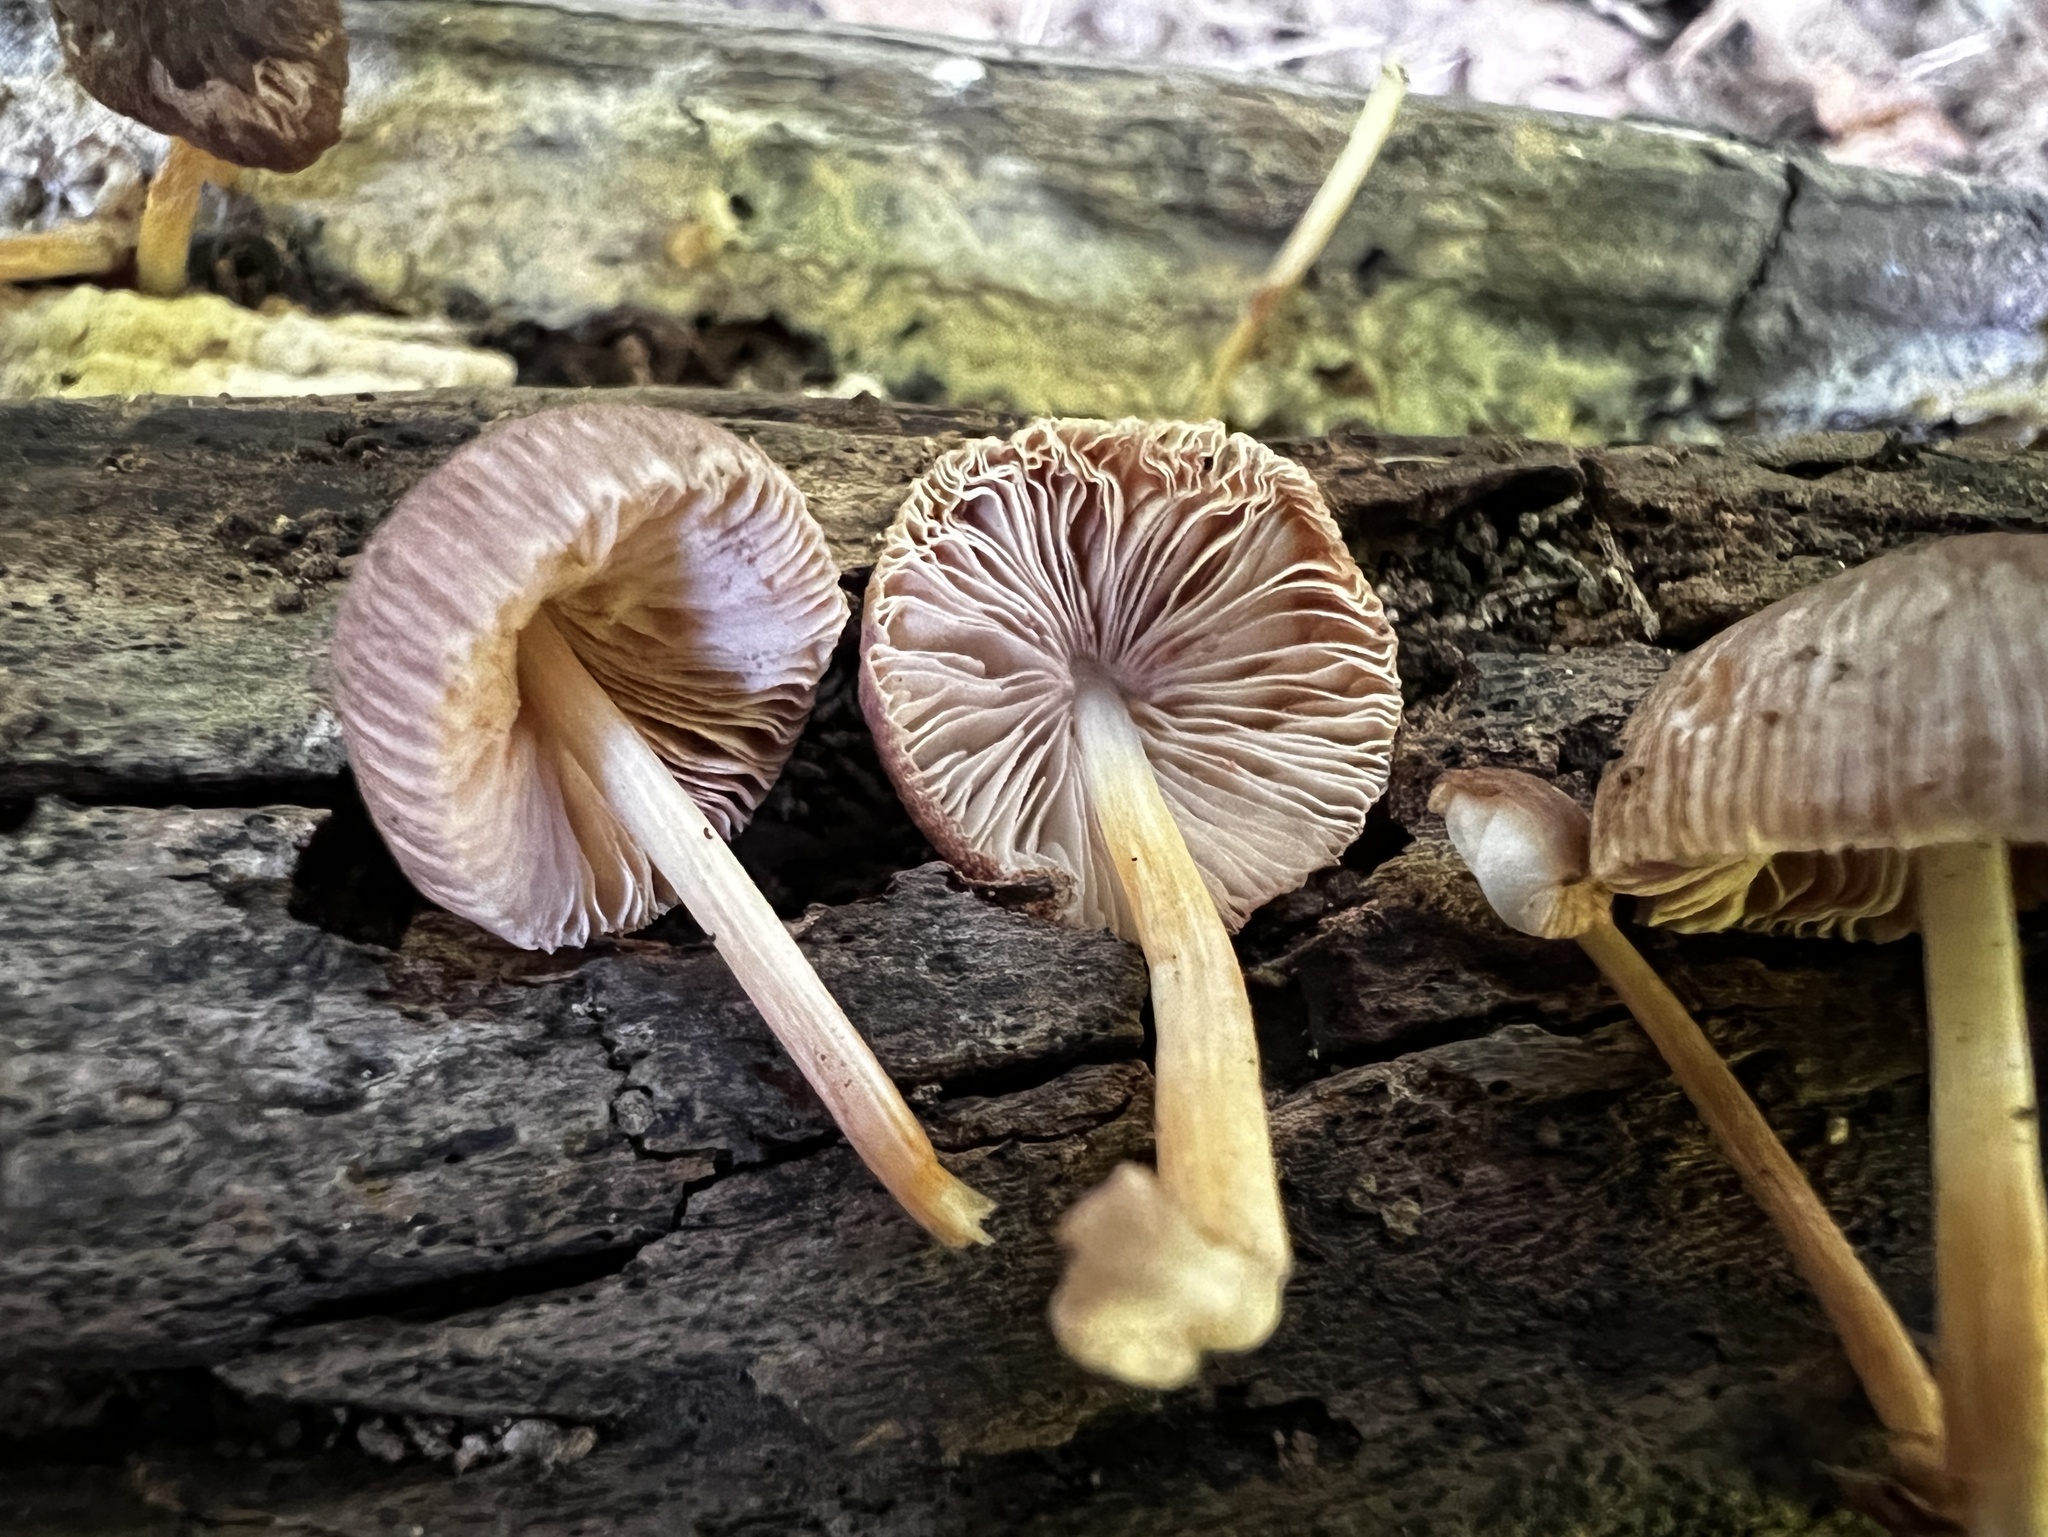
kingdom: Fungi
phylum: Basidiomycota
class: Agaricomycetes
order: Agaricales
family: Pluteaceae
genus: Pluteus
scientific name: Pluteus longistriatus
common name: Pleated pluteus
